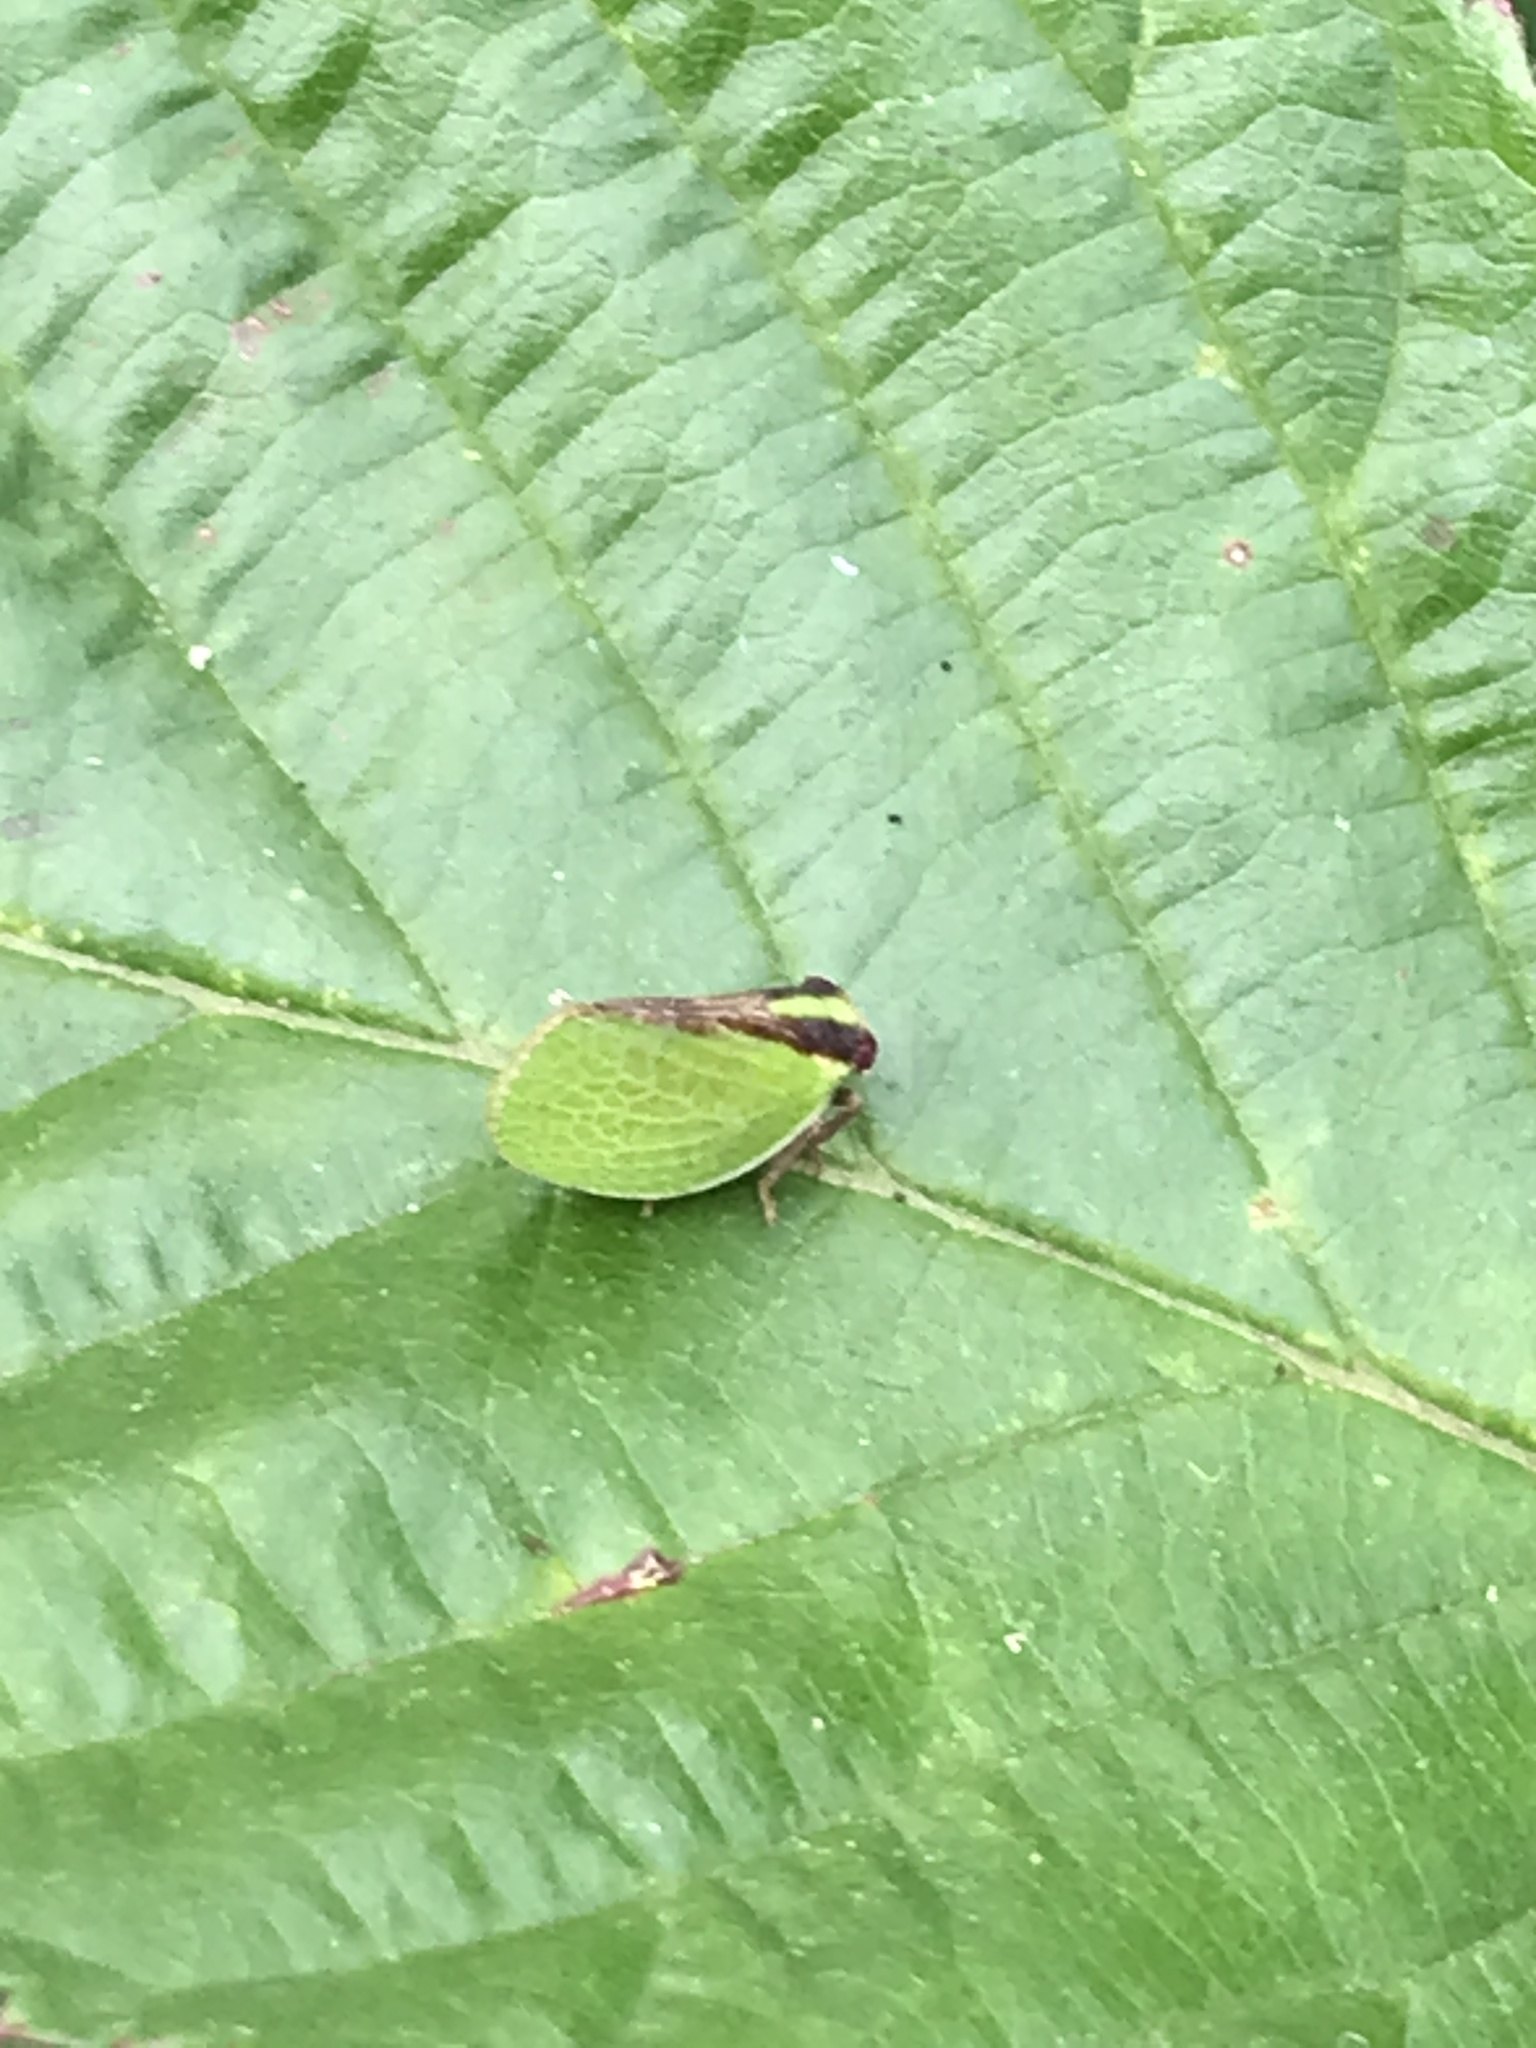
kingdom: Animalia
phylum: Arthropoda
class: Insecta
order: Hemiptera
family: Acanaloniidae
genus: Acanalonia
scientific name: Acanalonia bivittata
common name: Two-striped planthopper
